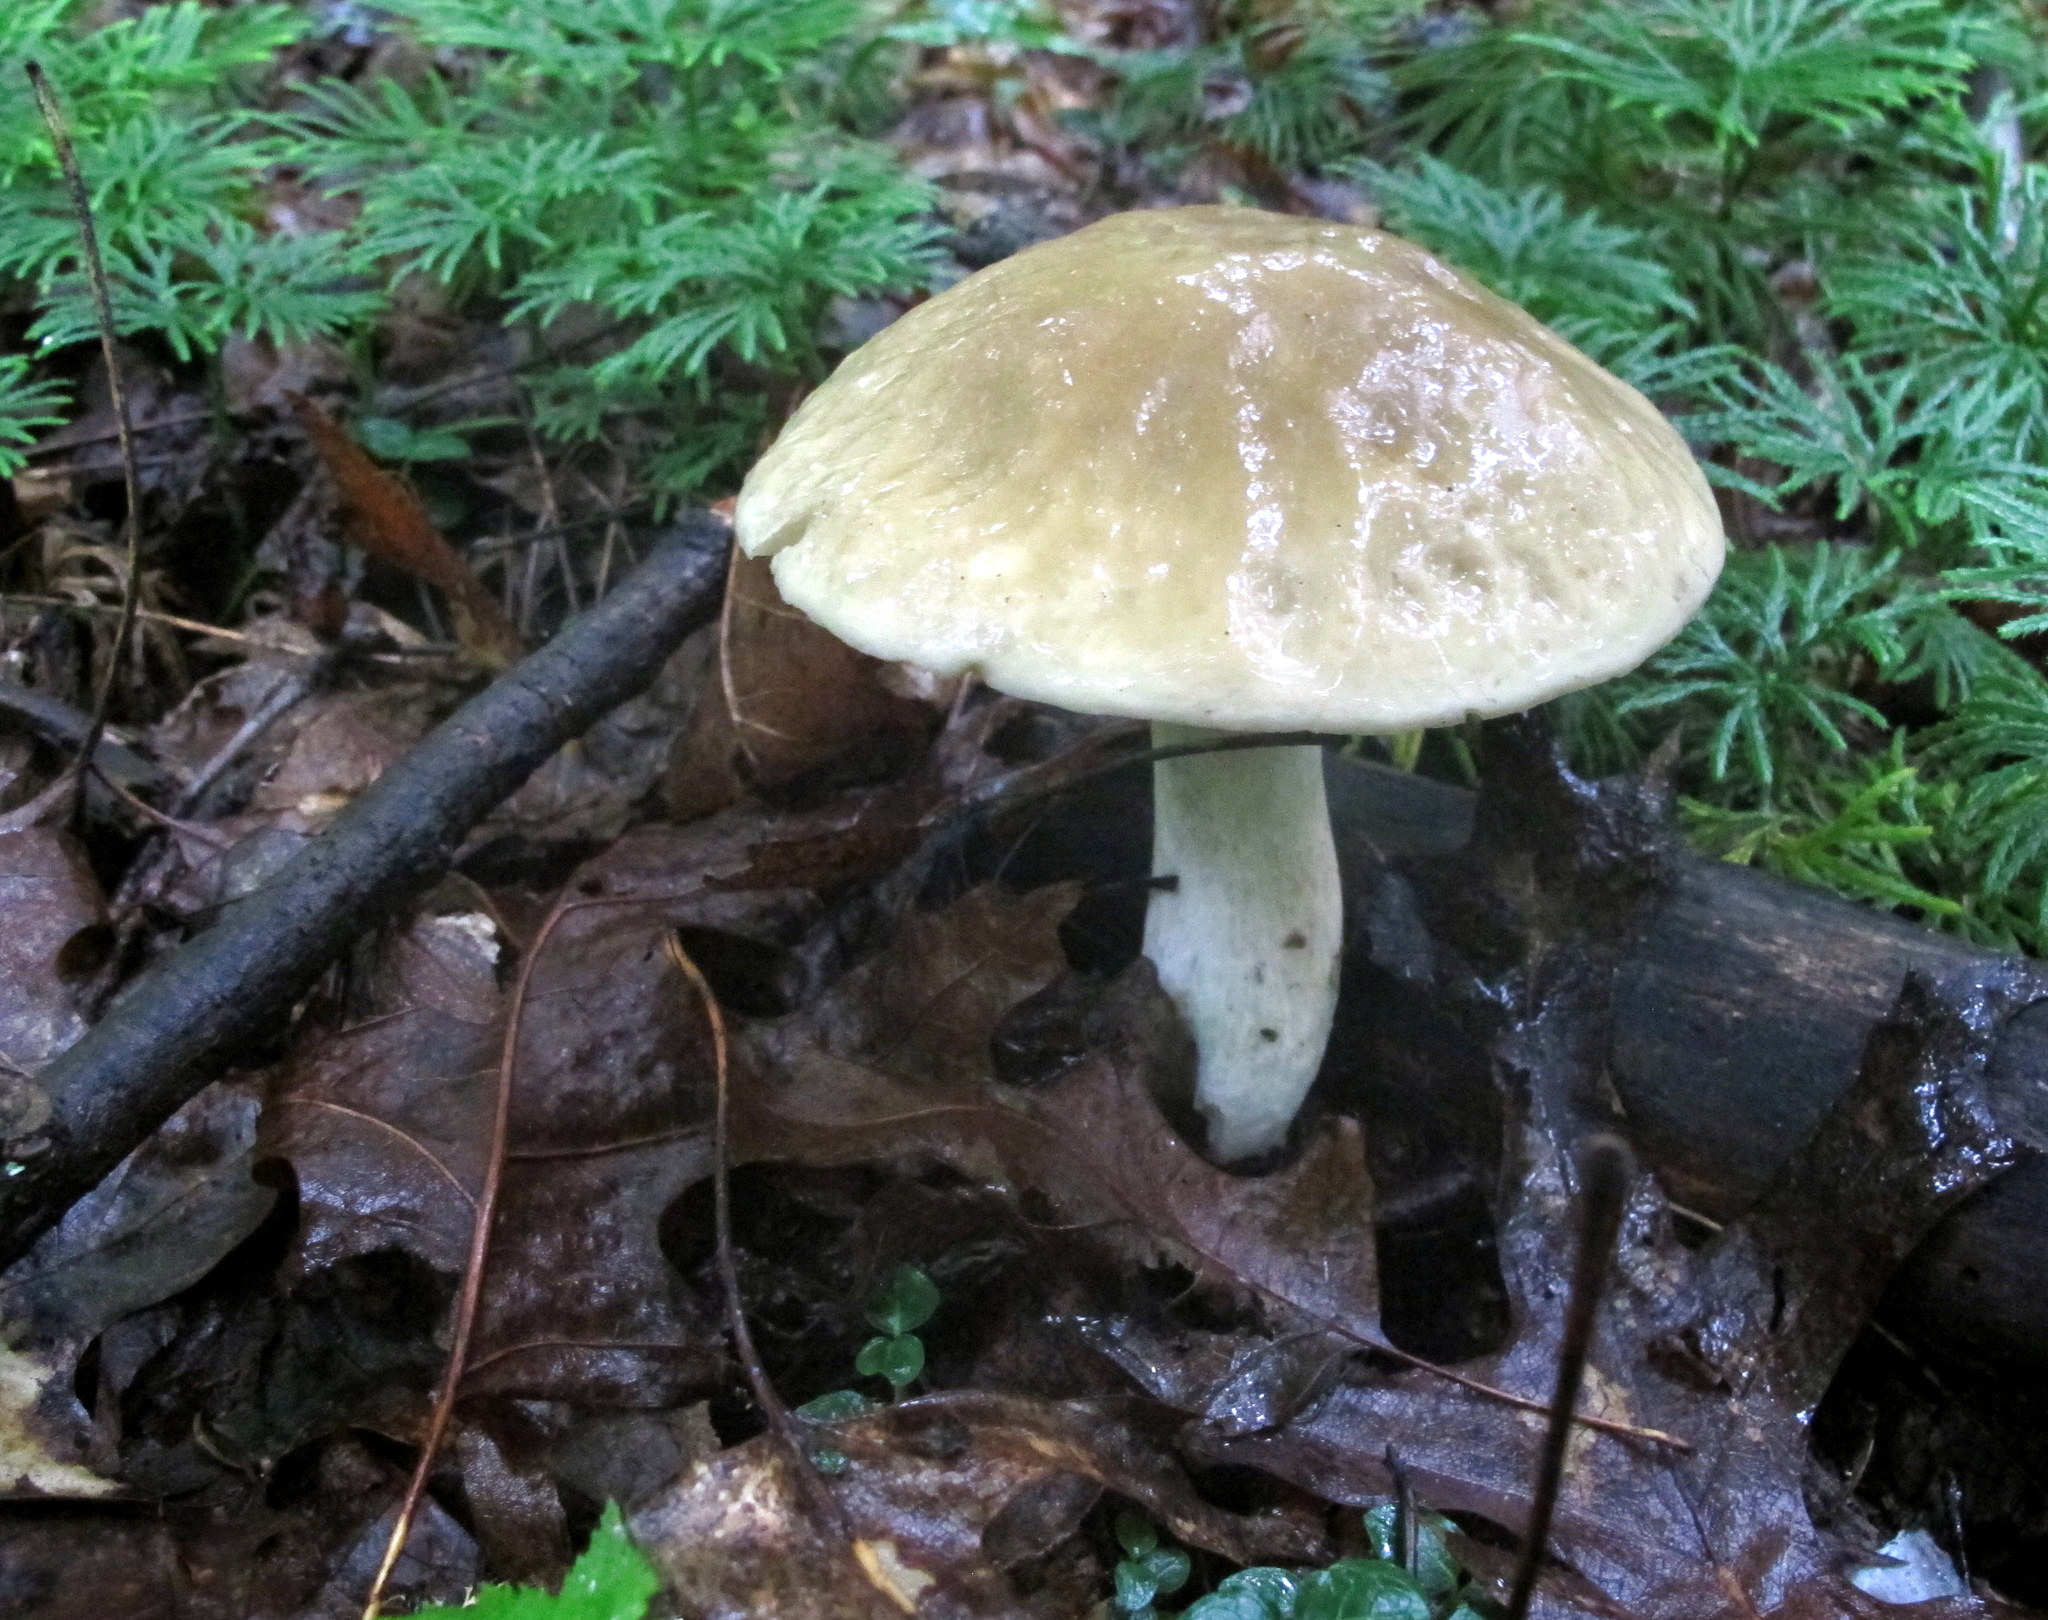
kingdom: Fungi
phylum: Basidiomycota
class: Agaricomycetes
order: Boletales
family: Boletaceae
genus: Xanthoconium
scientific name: Xanthoconium separans
